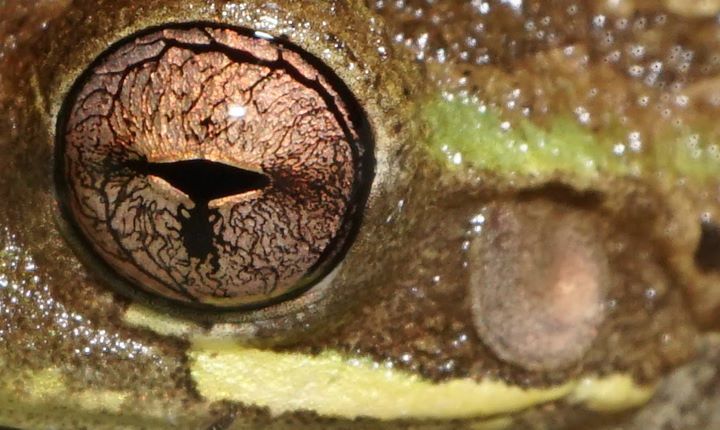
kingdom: Animalia
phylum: Chordata
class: Amphibia
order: Anura
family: Hylidae
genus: Osteopilus
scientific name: Osteopilus septentrionalis
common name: Cuban treefrog
